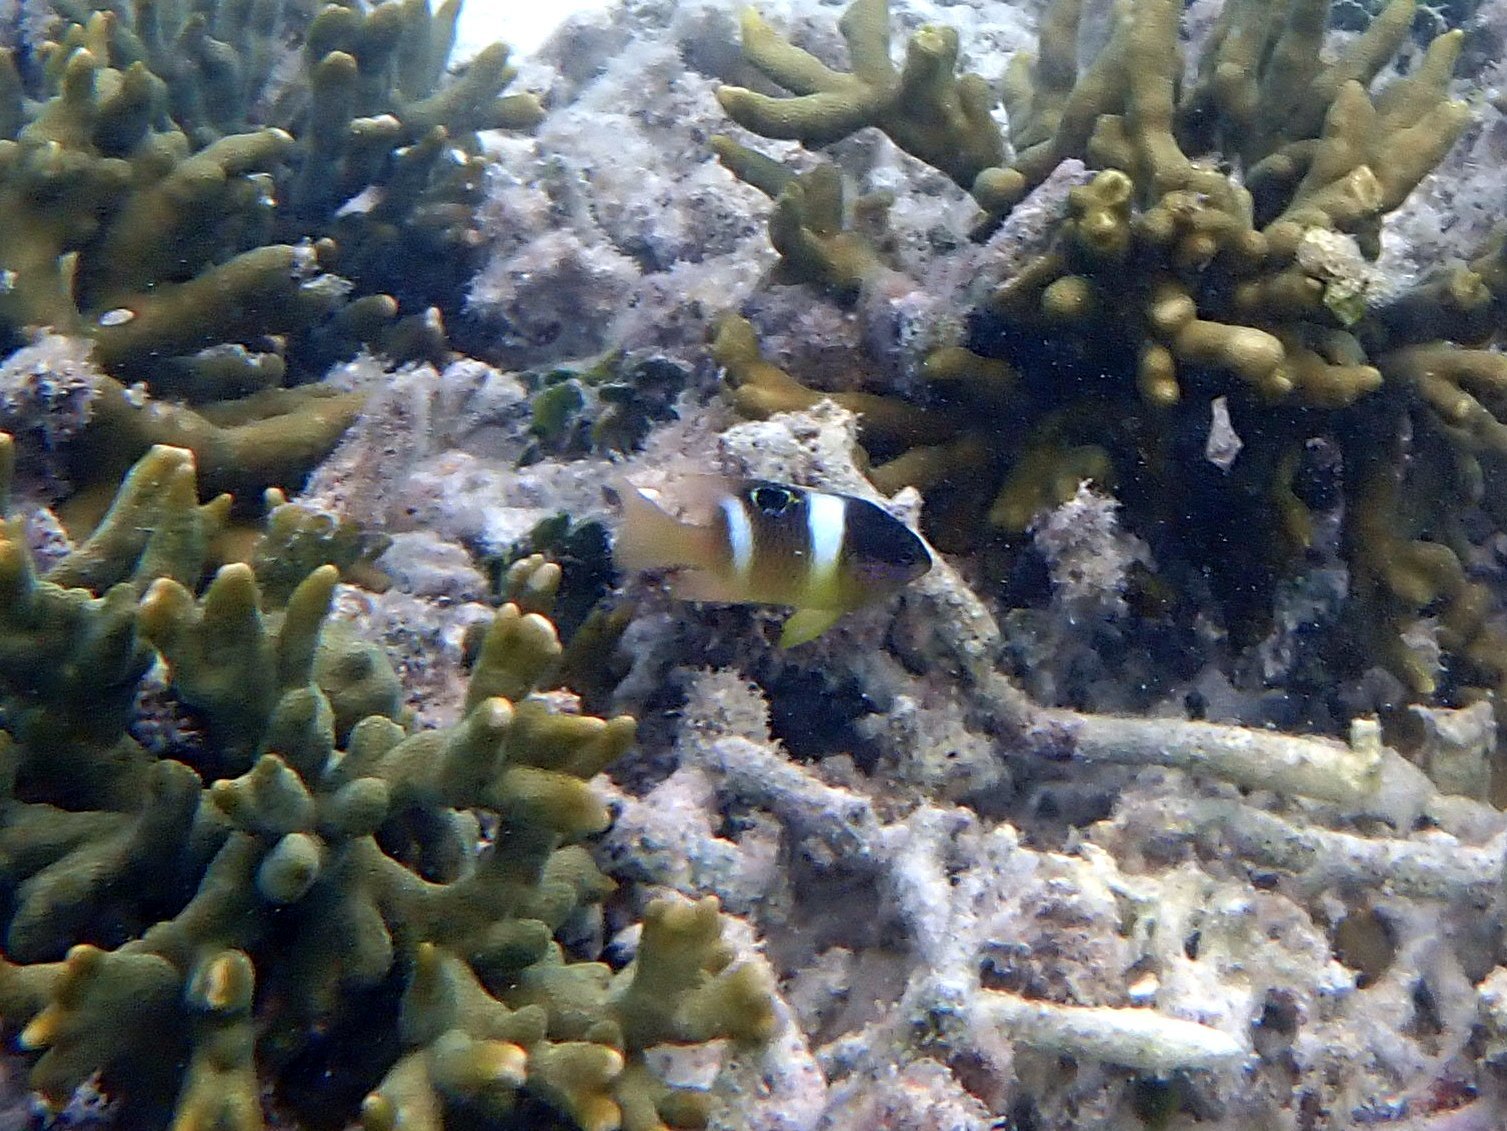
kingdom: Animalia
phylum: Chordata
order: Perciformes
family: Pomacentridae
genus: Dischistodus
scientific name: Dischistodus pseudochrysopoecilus
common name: Monarch damsel
